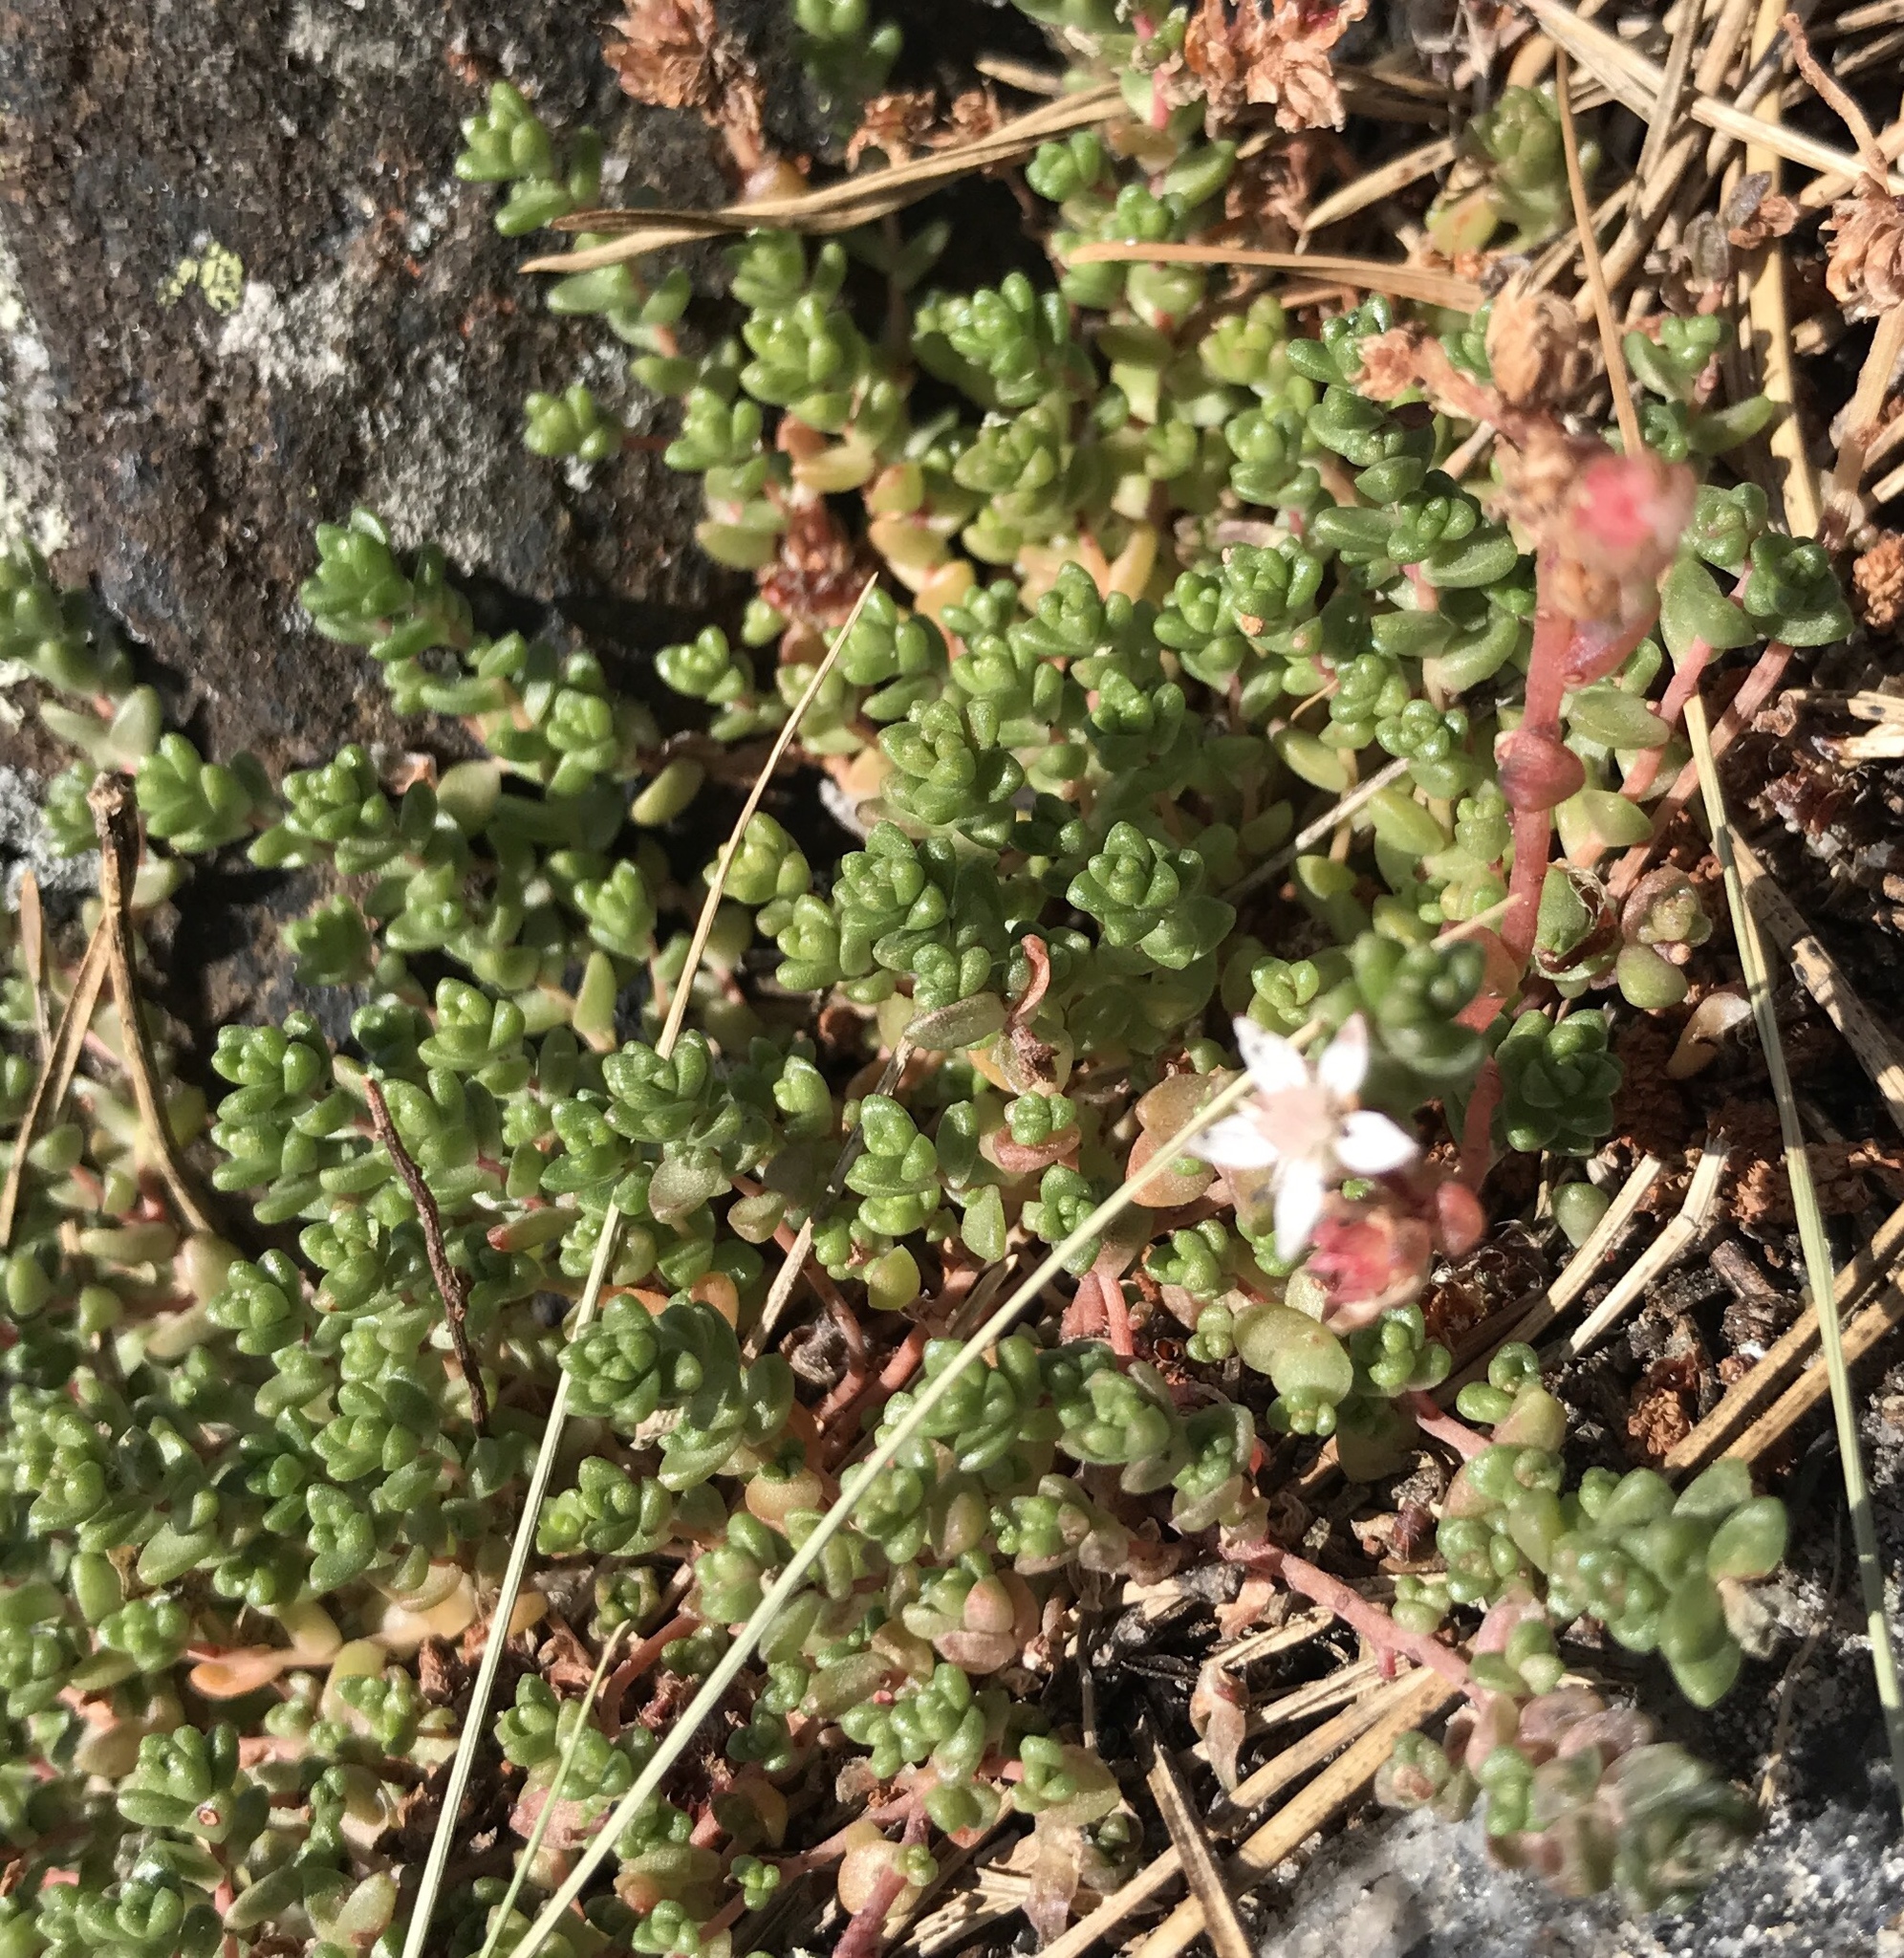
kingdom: Plantae
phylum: Tracheophyta
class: Magnoliopsida
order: Saxifragales
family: Crassulaceae
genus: Sedum
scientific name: Sedum anglicum
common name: English stonecrop
